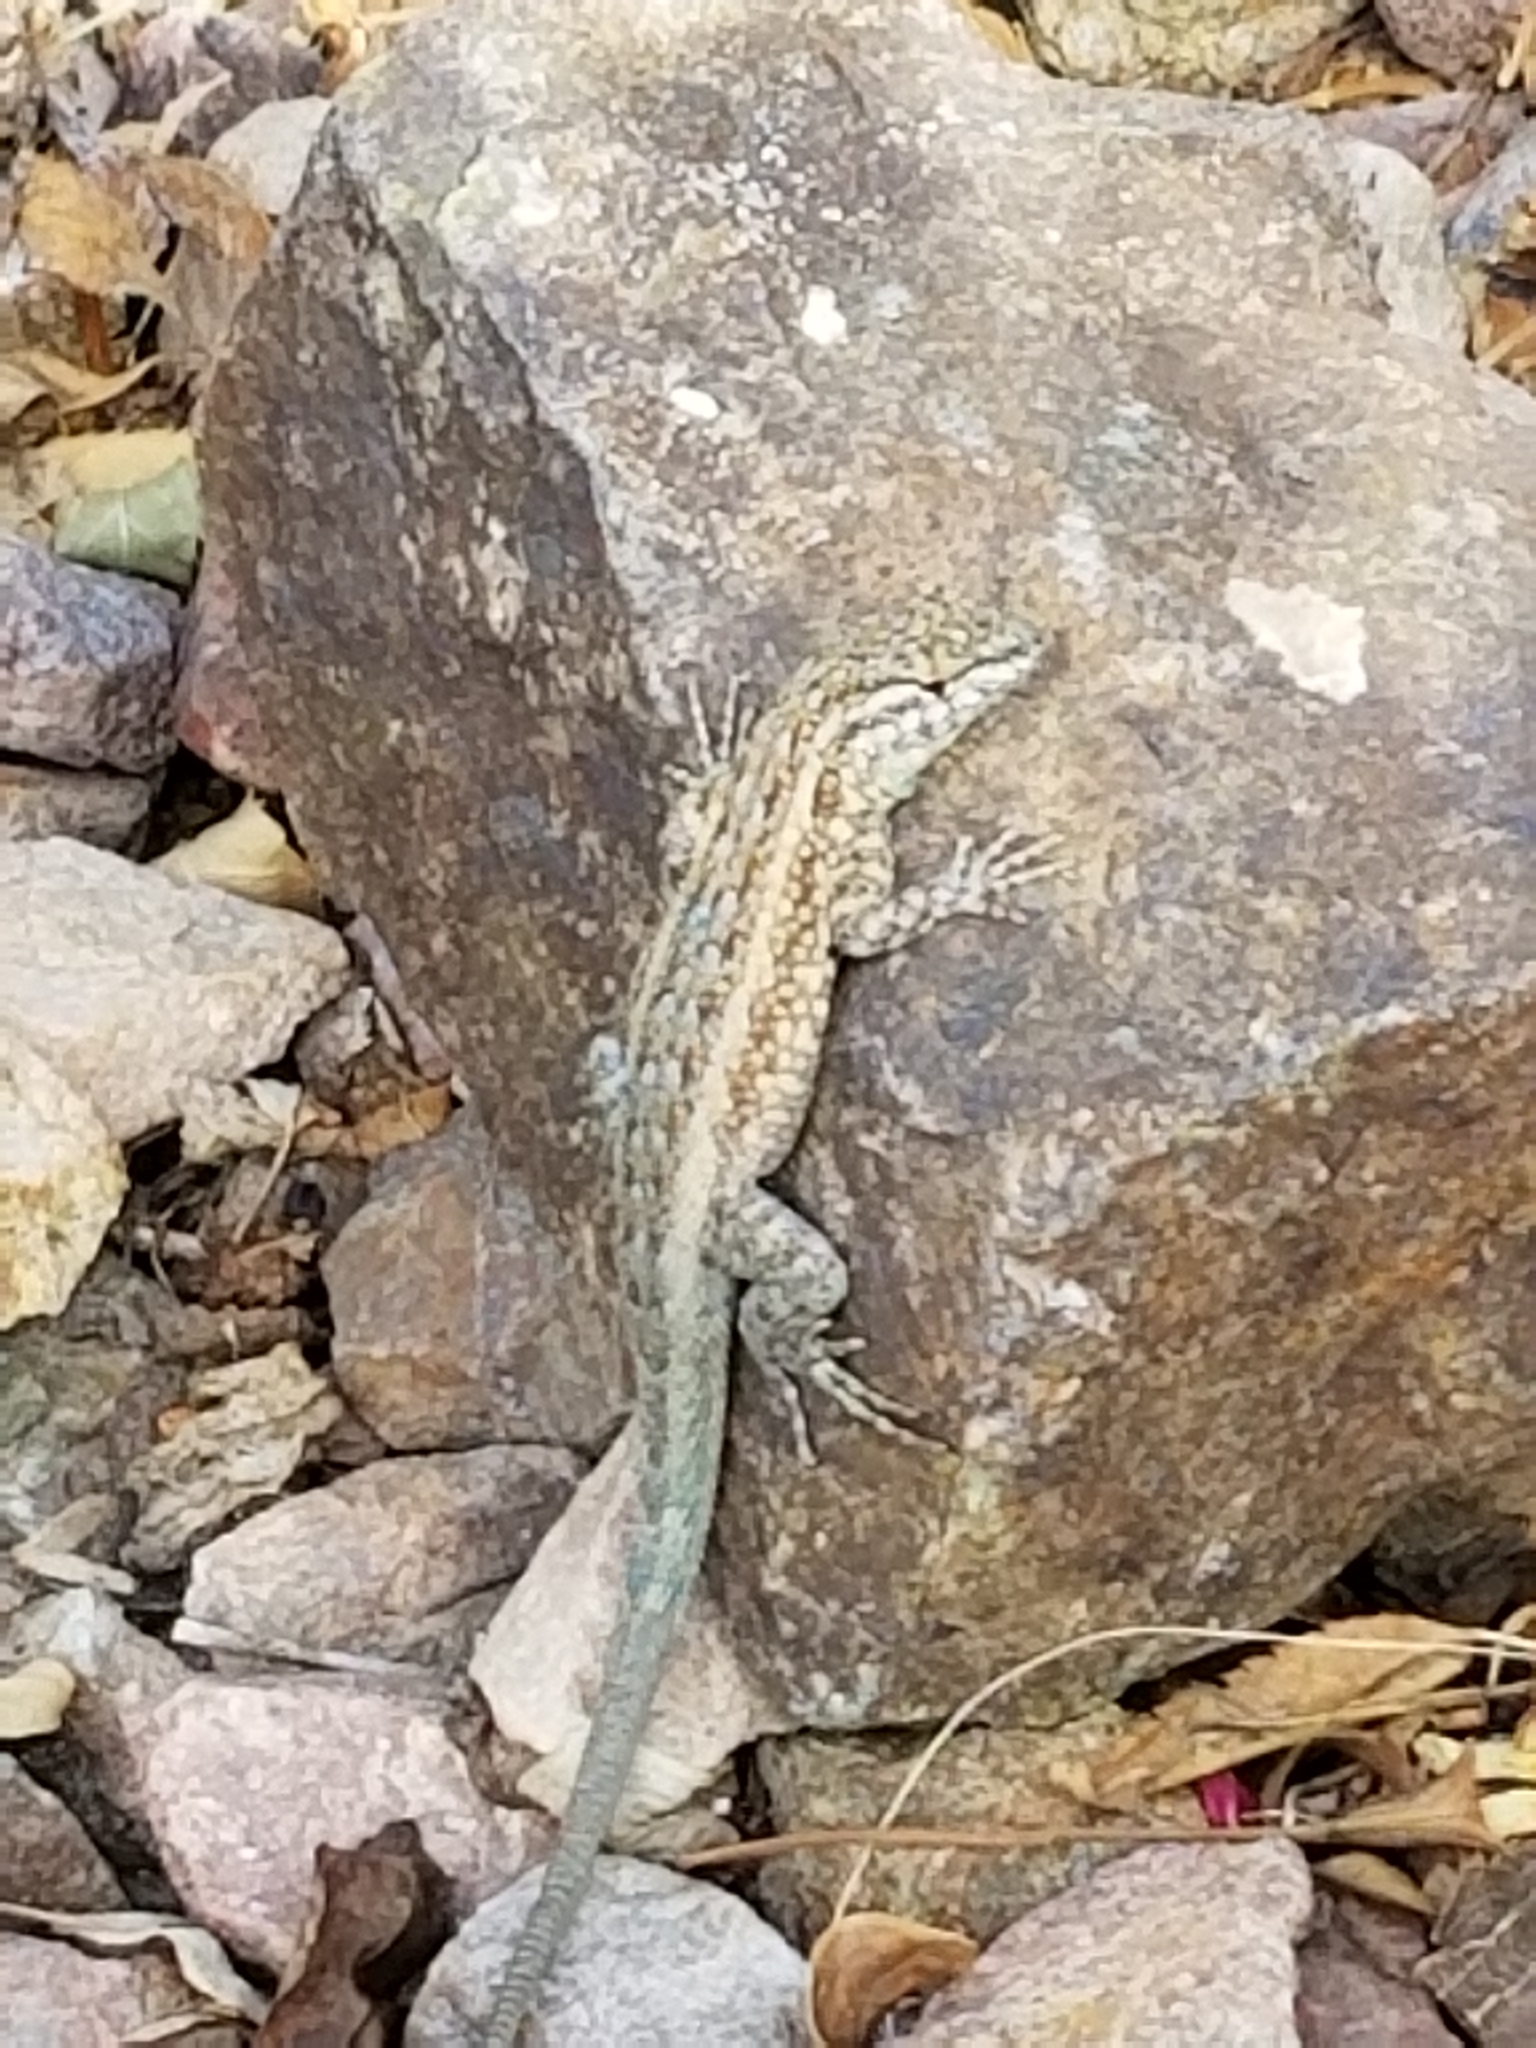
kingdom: Animalia
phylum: Chordata
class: Squamata
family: Phrynosomatidae
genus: Uta
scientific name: Uta stansburiana
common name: Side-blotched lizard
